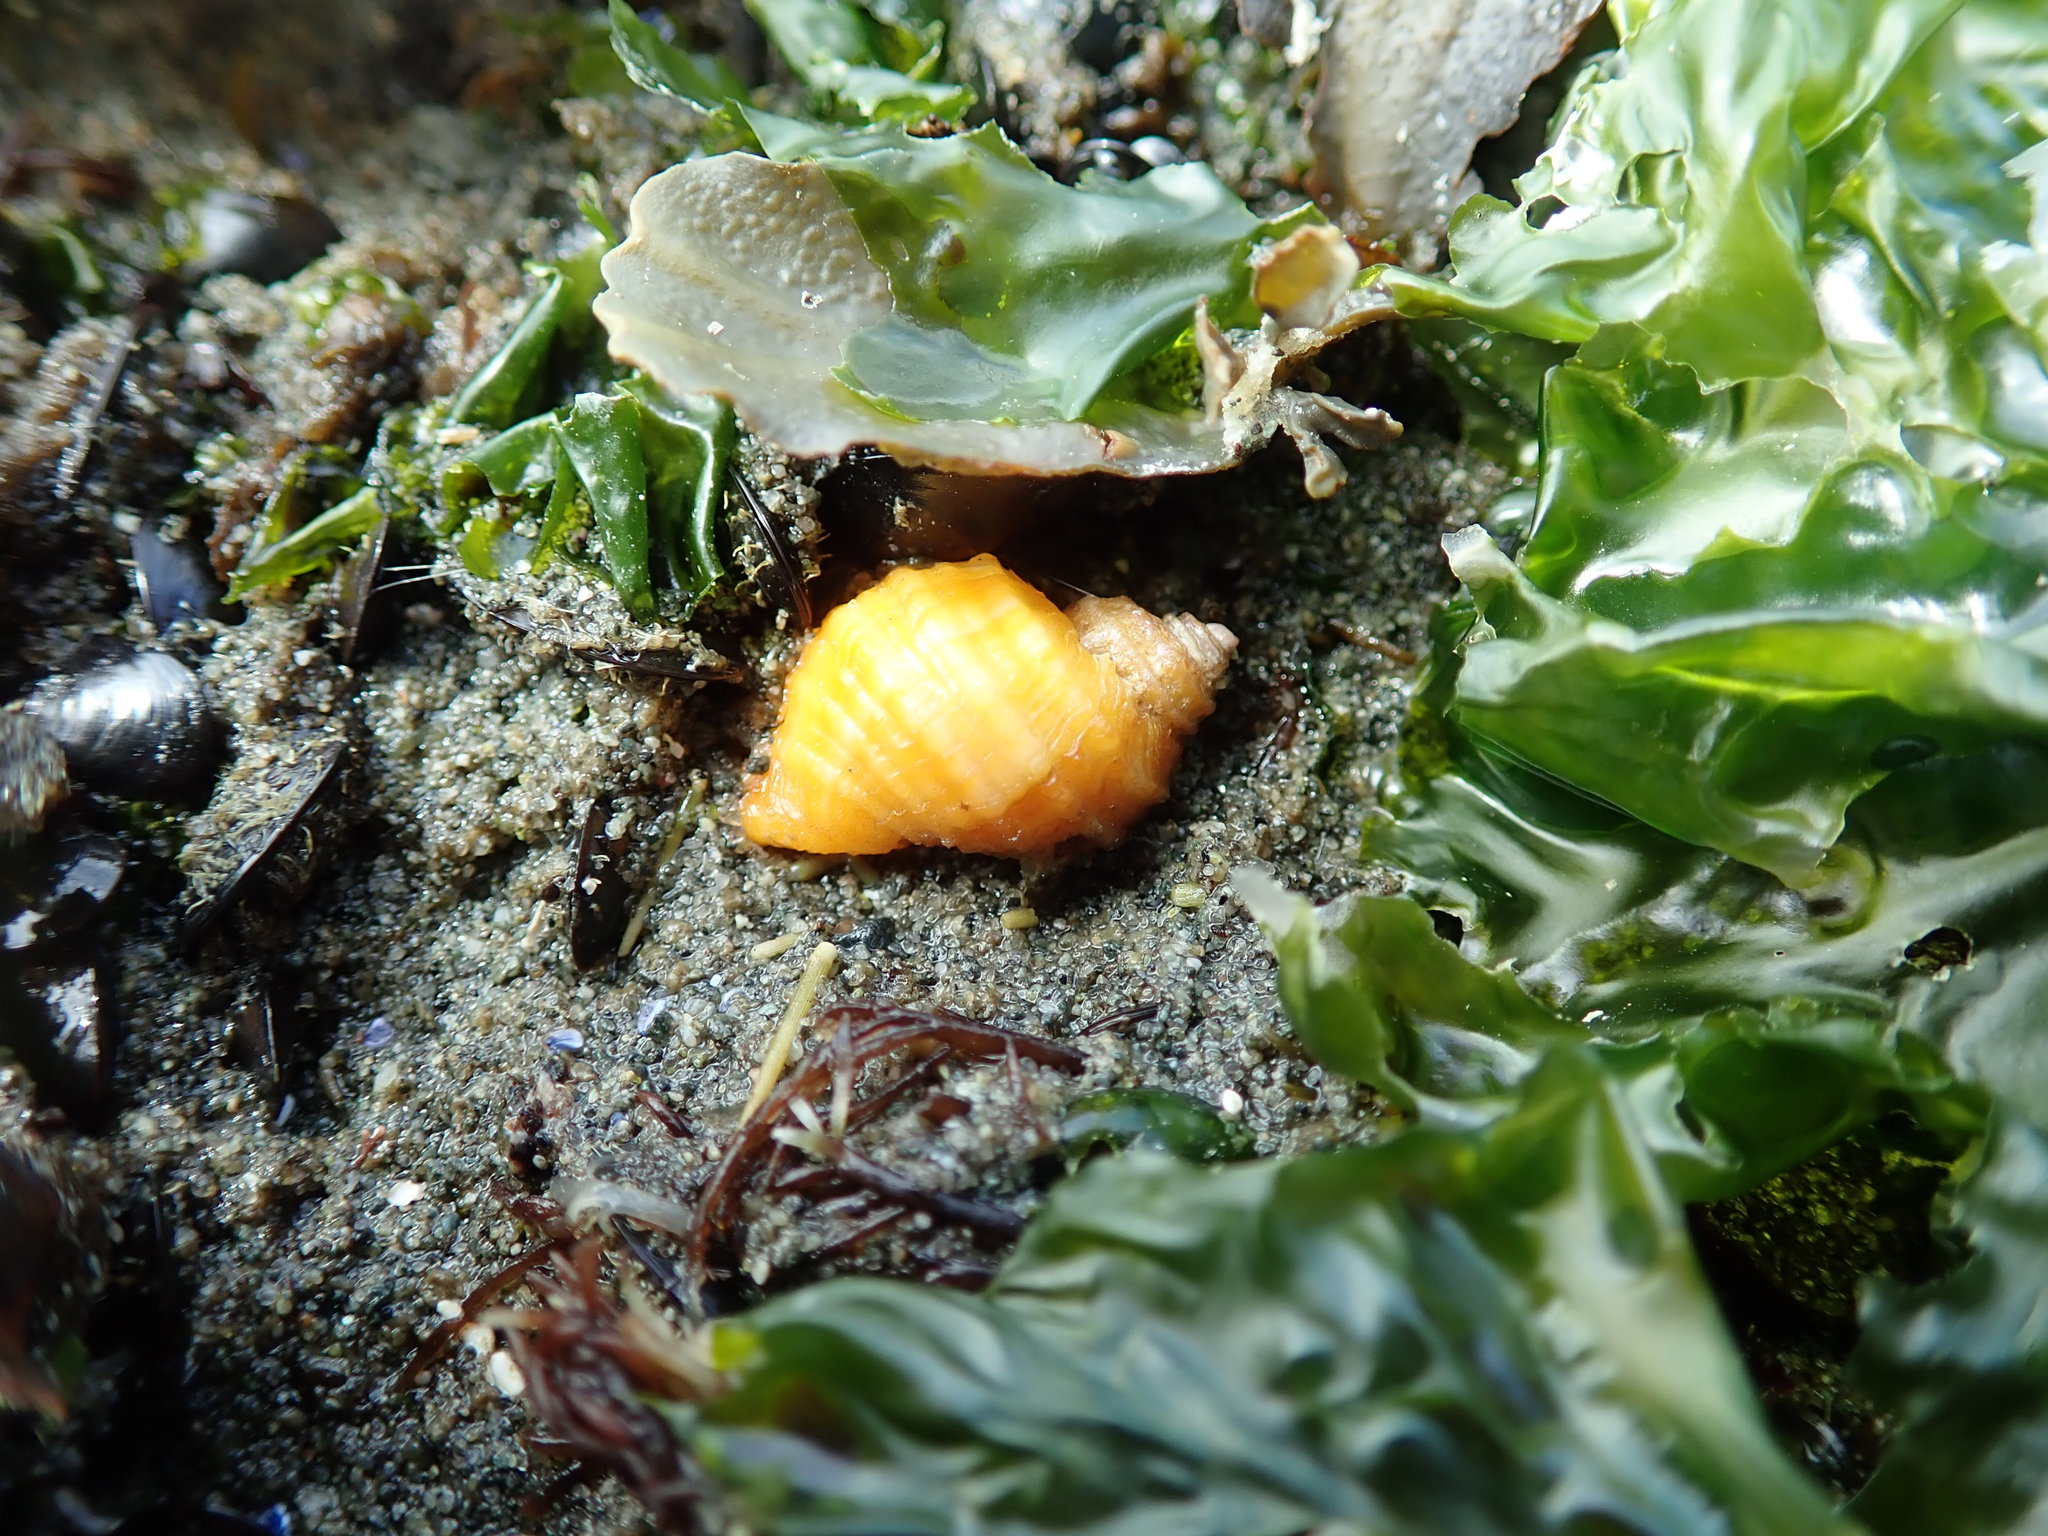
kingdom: Animalia
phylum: Mollusca
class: Gastropoda
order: Neogastropoda
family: Muricidae
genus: Nucella
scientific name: Nucella ostrina
